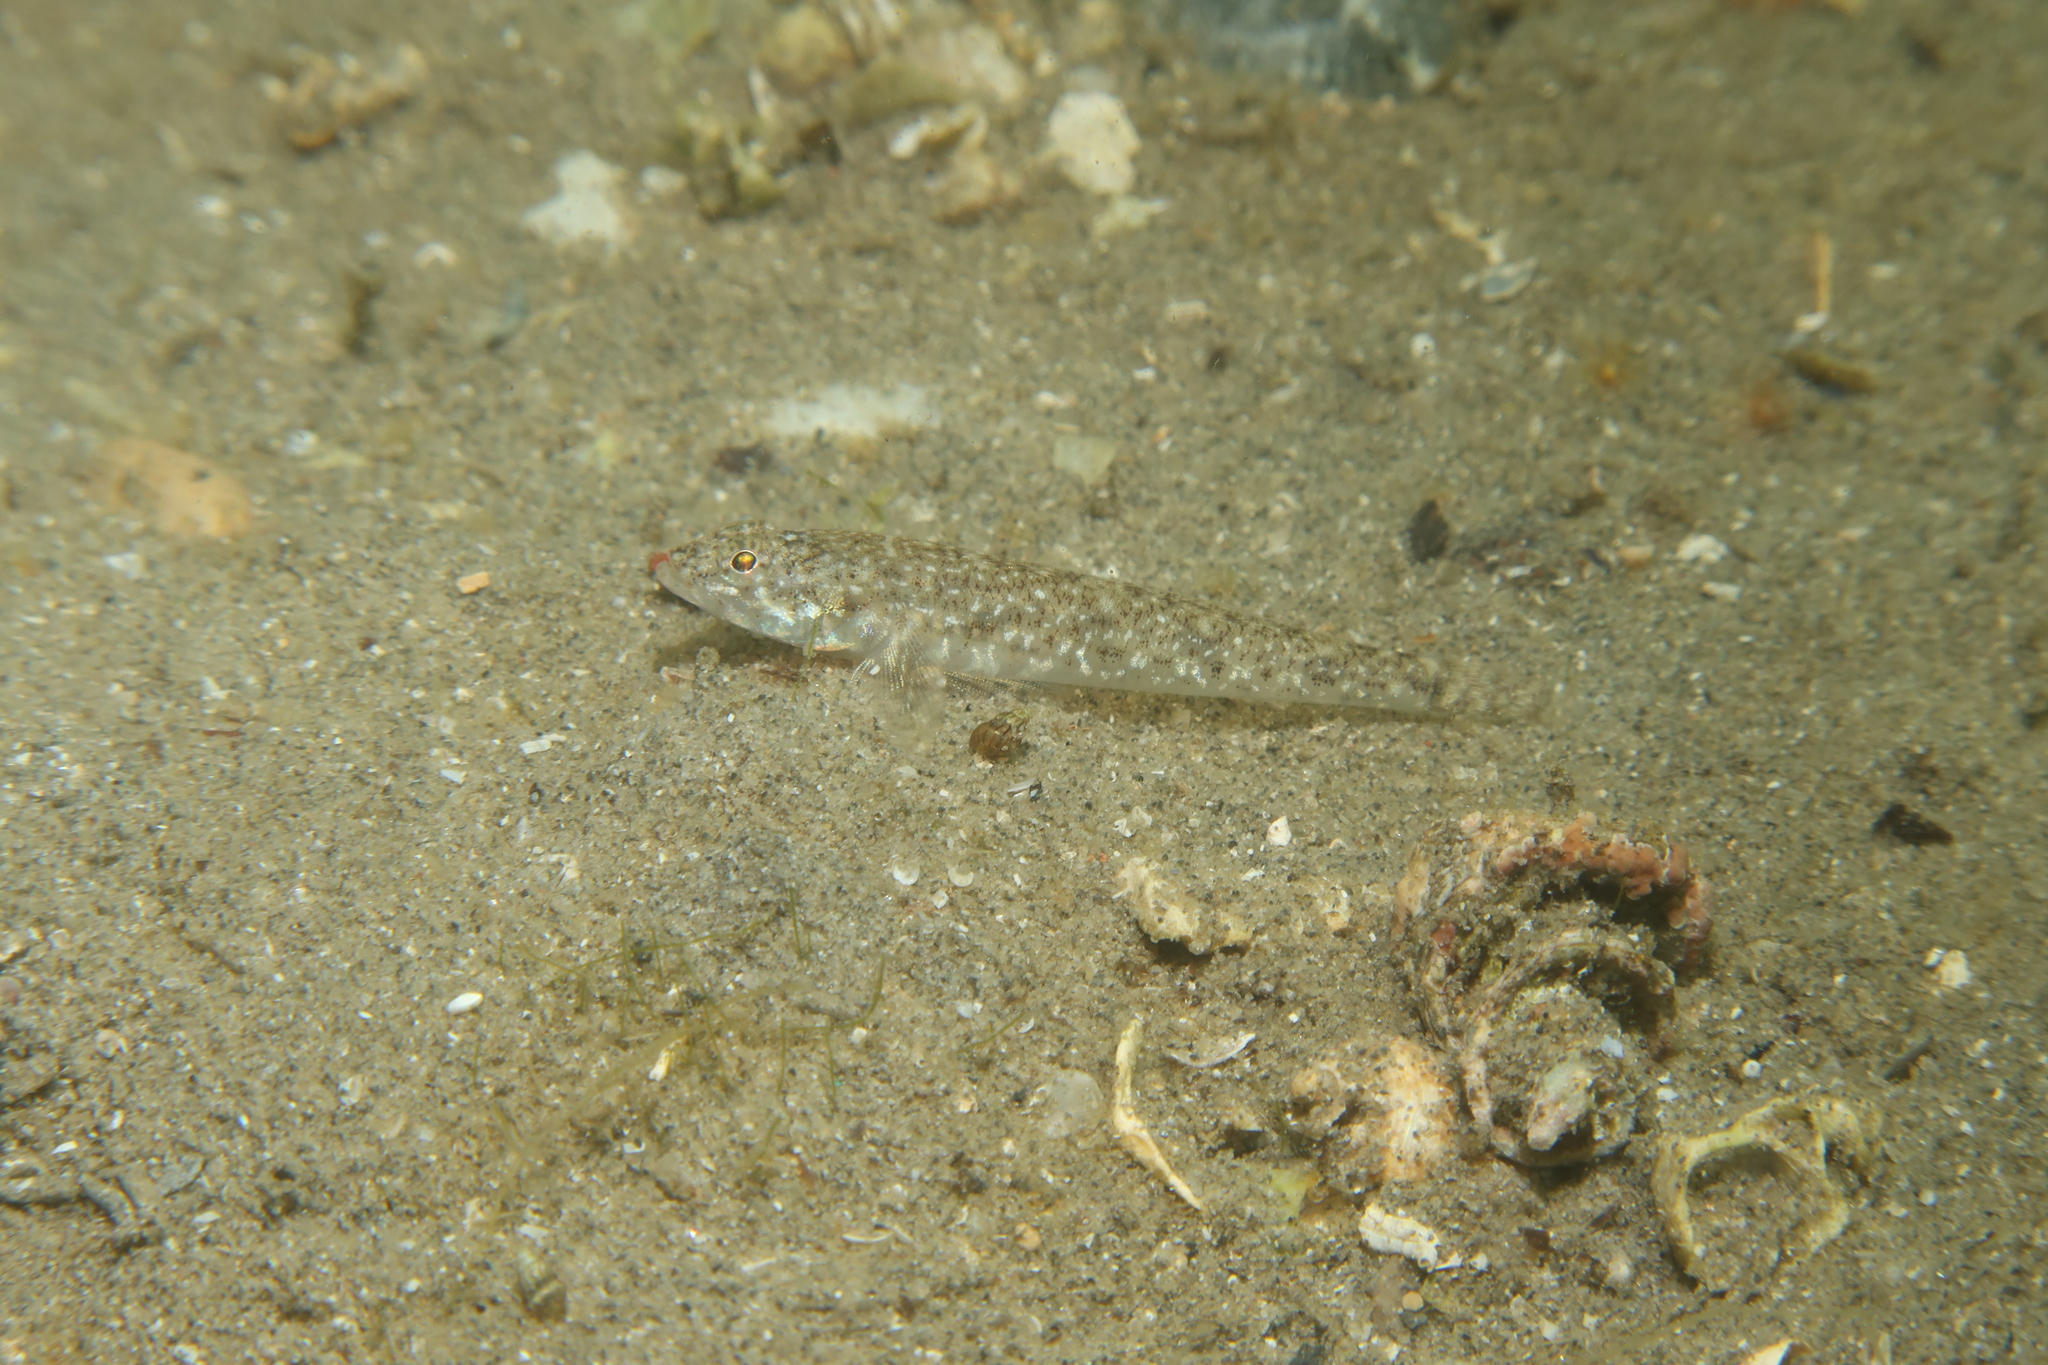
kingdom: Animalia
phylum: Chordata
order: Perciformes
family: Gobiidae
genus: Pomatoschistus
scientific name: Pomatoschistus marmoratus
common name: Marbled goby
